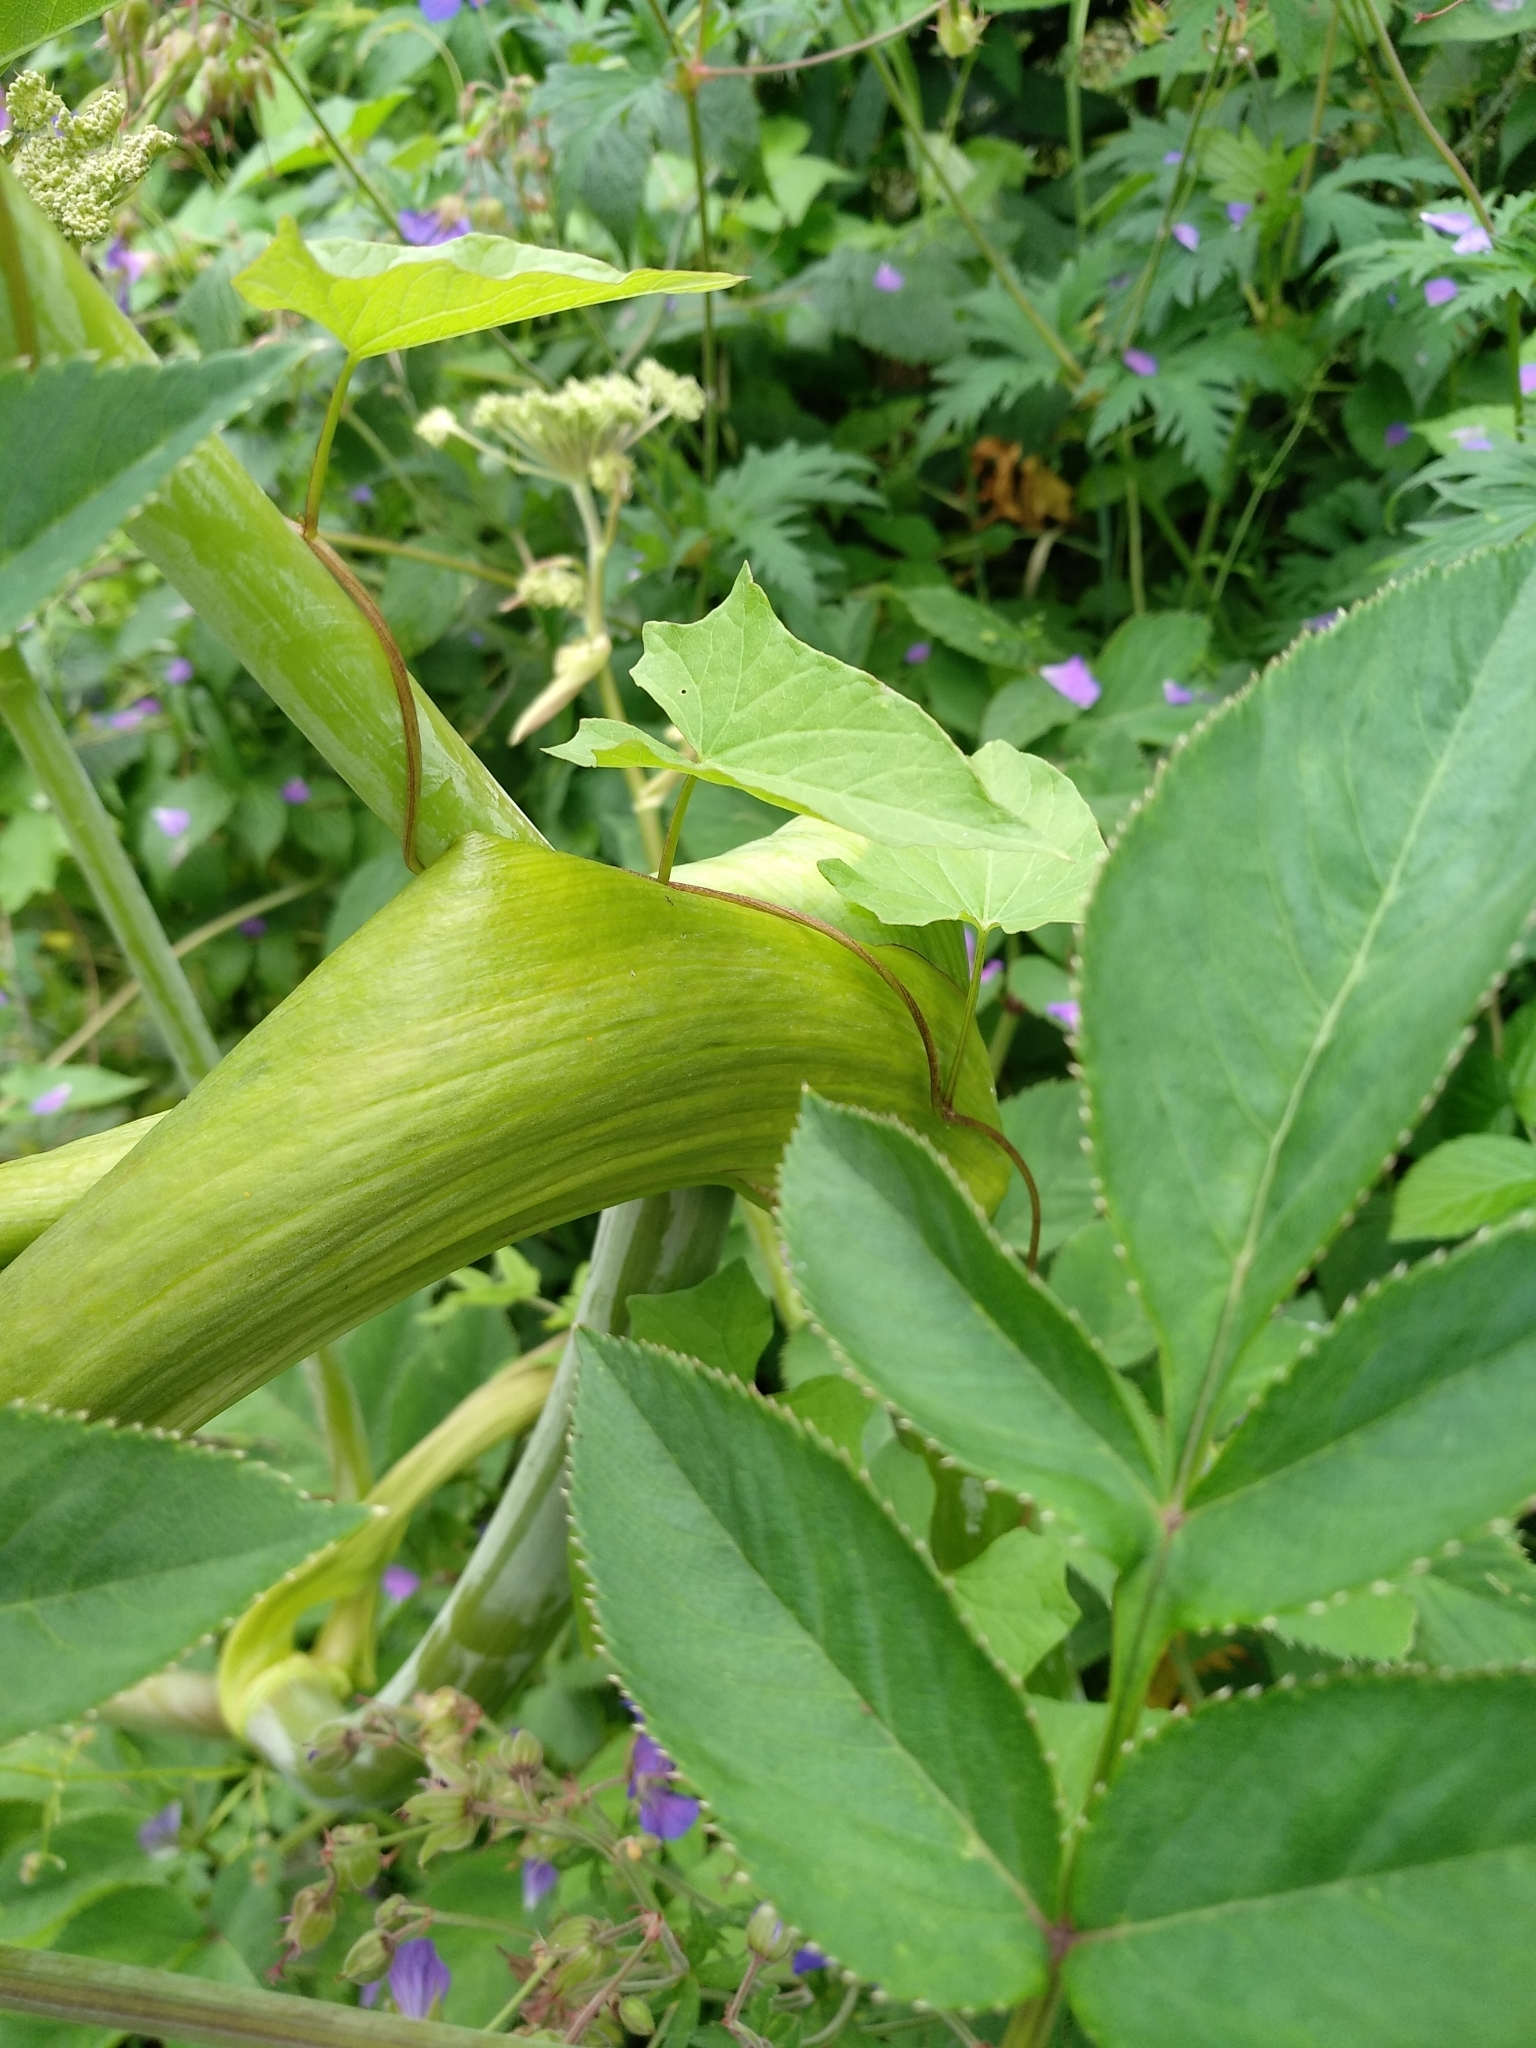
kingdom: Plantae
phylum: Tracheophyta
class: Magnoliopsida
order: Apiales
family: Apiaceae
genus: Angelica
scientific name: Angelica sylvestris
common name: Wild angelica
